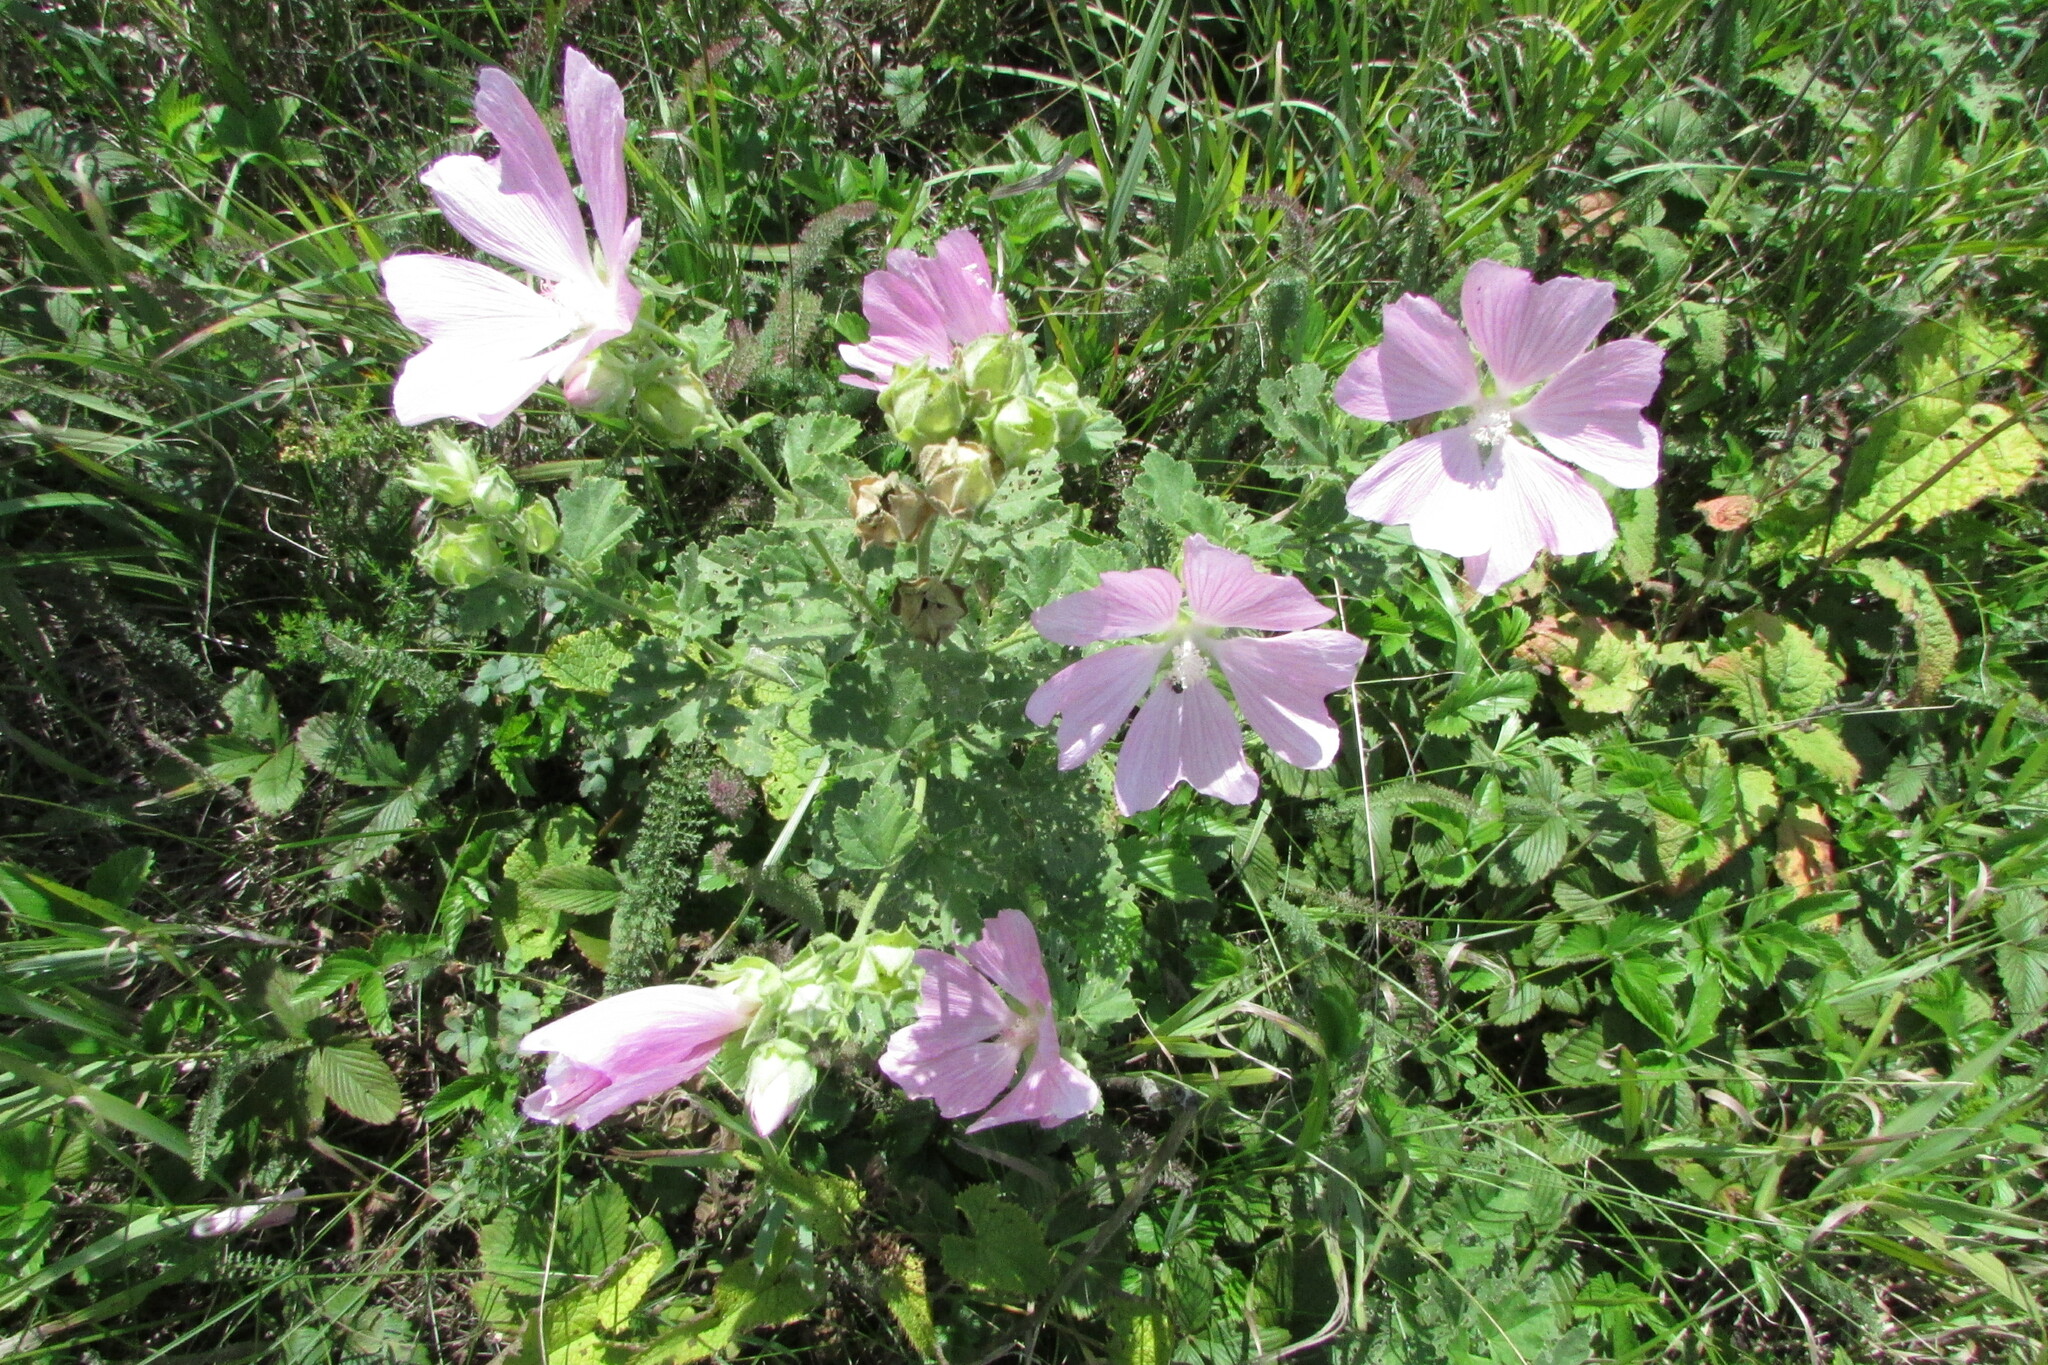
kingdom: Plantae
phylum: Tracheophyta
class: Magnoliopsida
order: Malvales
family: Malvaceae
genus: Malva
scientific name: Malva thuringiaca
